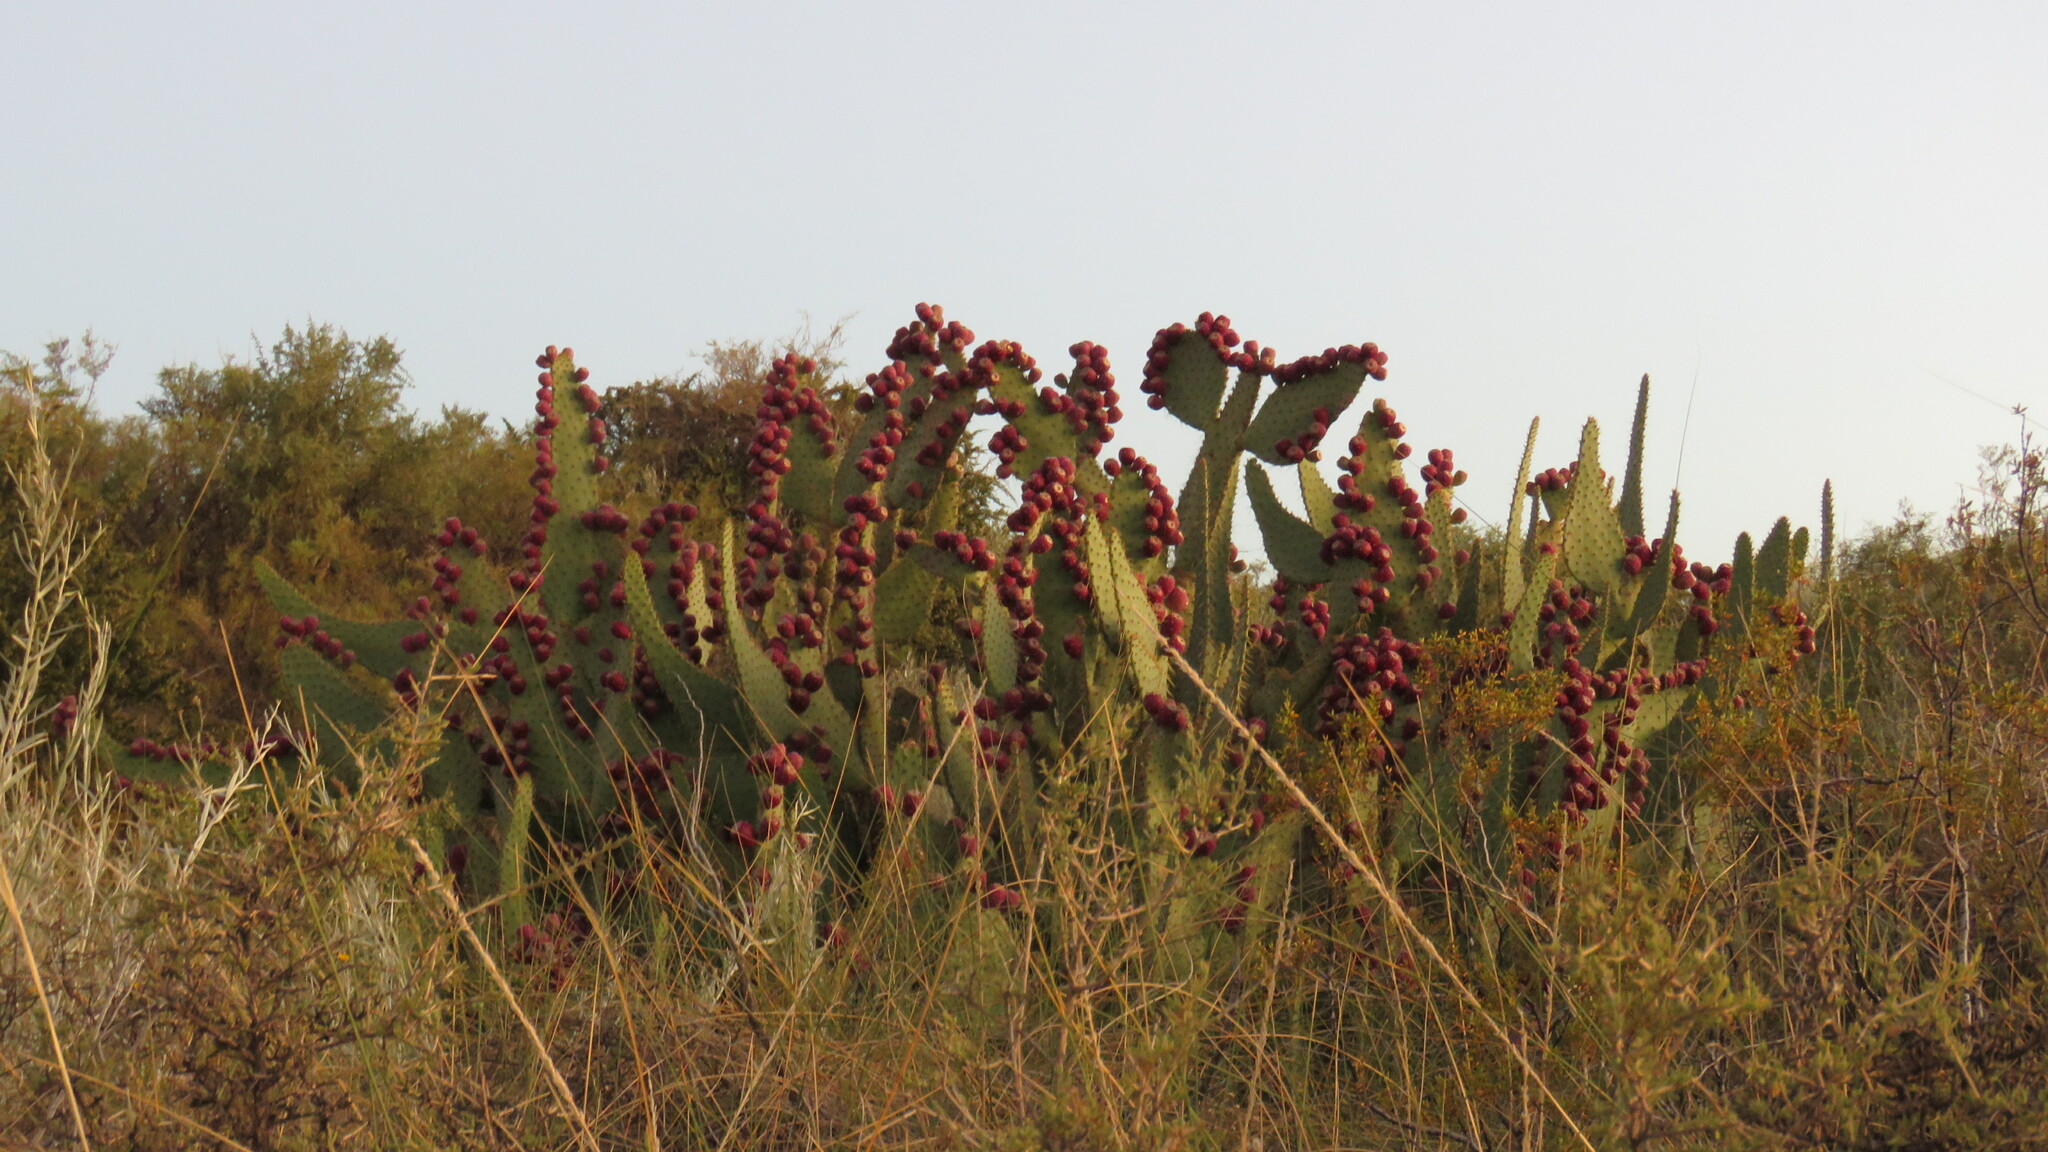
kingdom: Plantae
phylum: Tracheophyta
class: Magnoliopsida
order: Caryophyllales
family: Cactaceae
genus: Opuntia
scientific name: Opuntia engelmannii
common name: Cactus-apple
